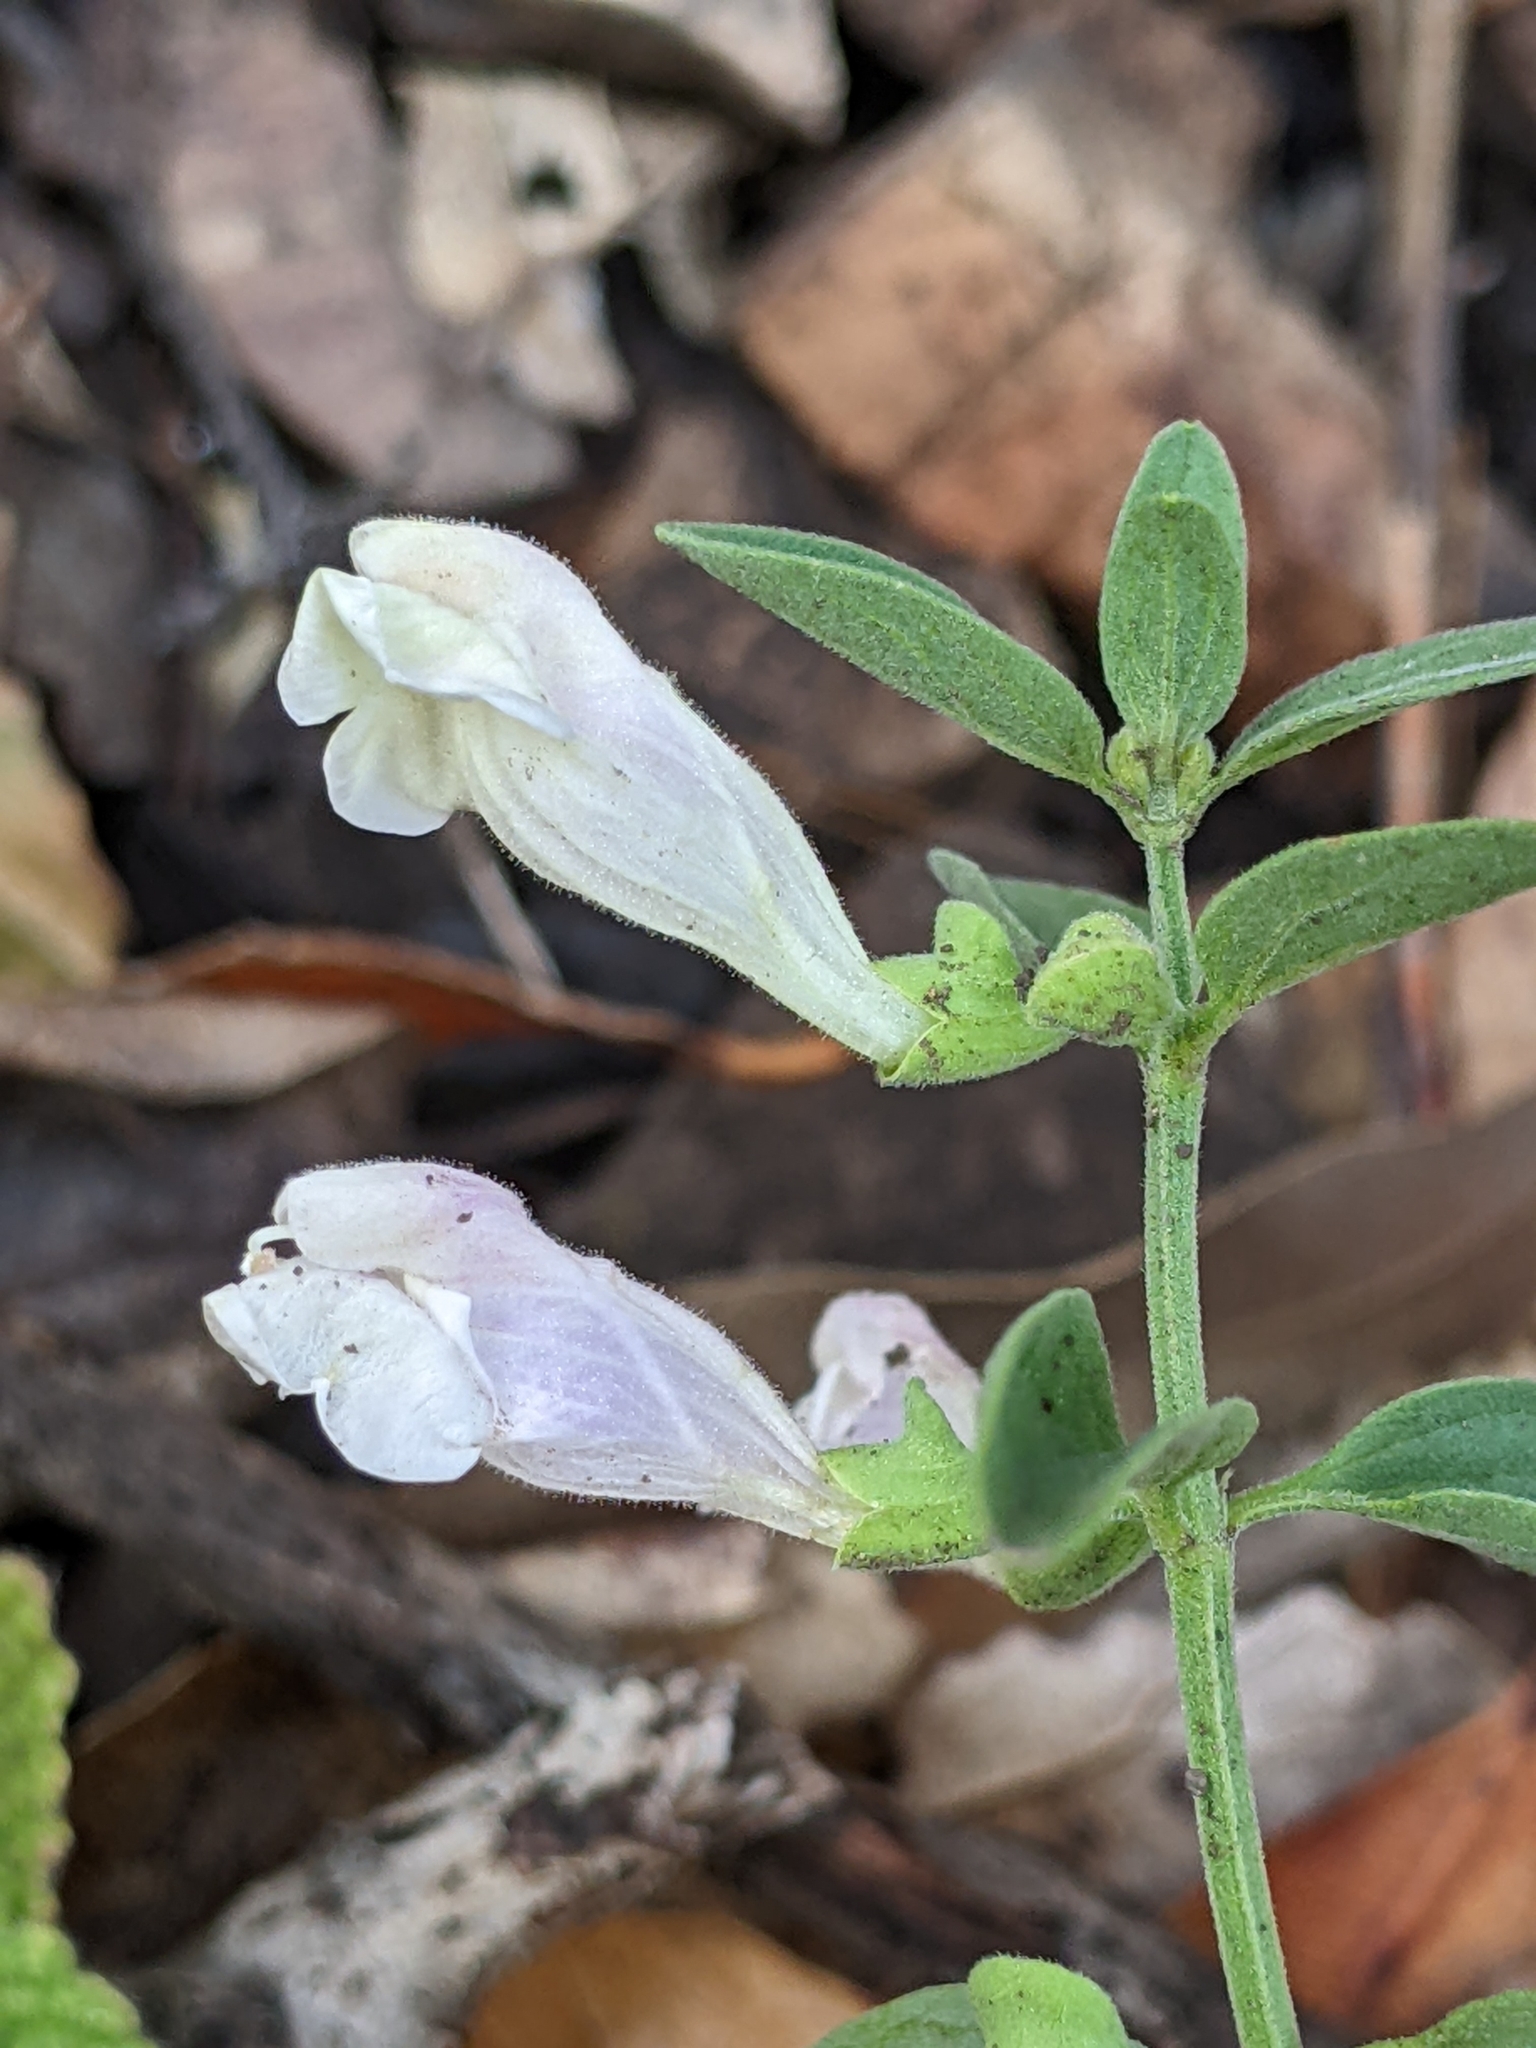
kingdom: Plantae
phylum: Tracheophyta
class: Magnoliopsida
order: Lamiales
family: Lamiaceae
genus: Scutellaria
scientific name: Scutellaria californica
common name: California scullcap
